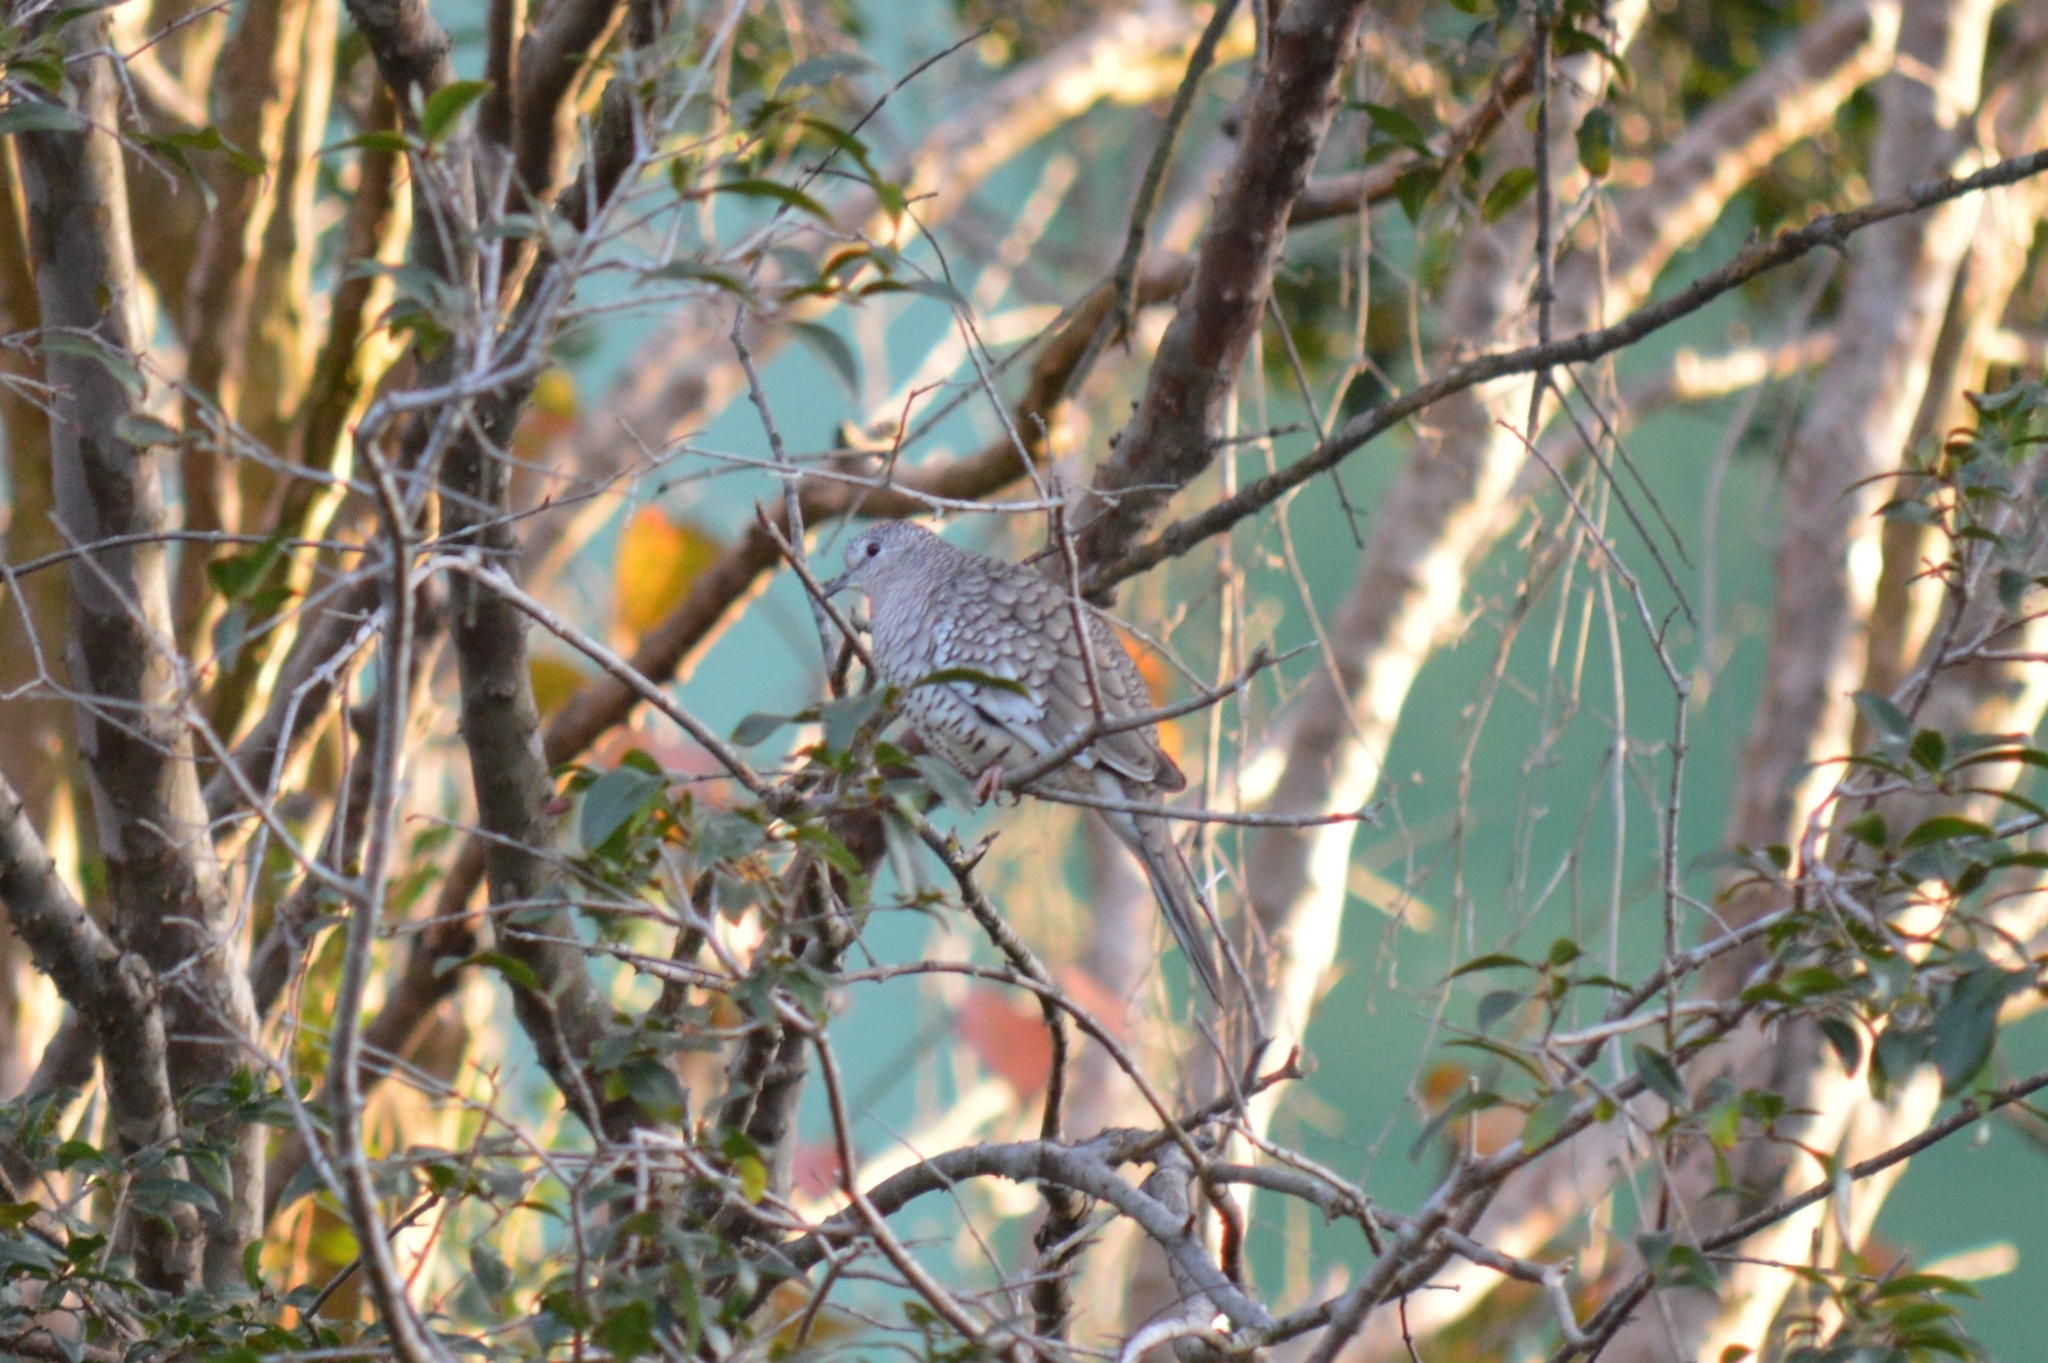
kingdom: Animalia
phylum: Chordata
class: Aves
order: Columbiformes
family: Columbidae
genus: Columbina
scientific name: Columbina squammata
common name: Scaled dove
